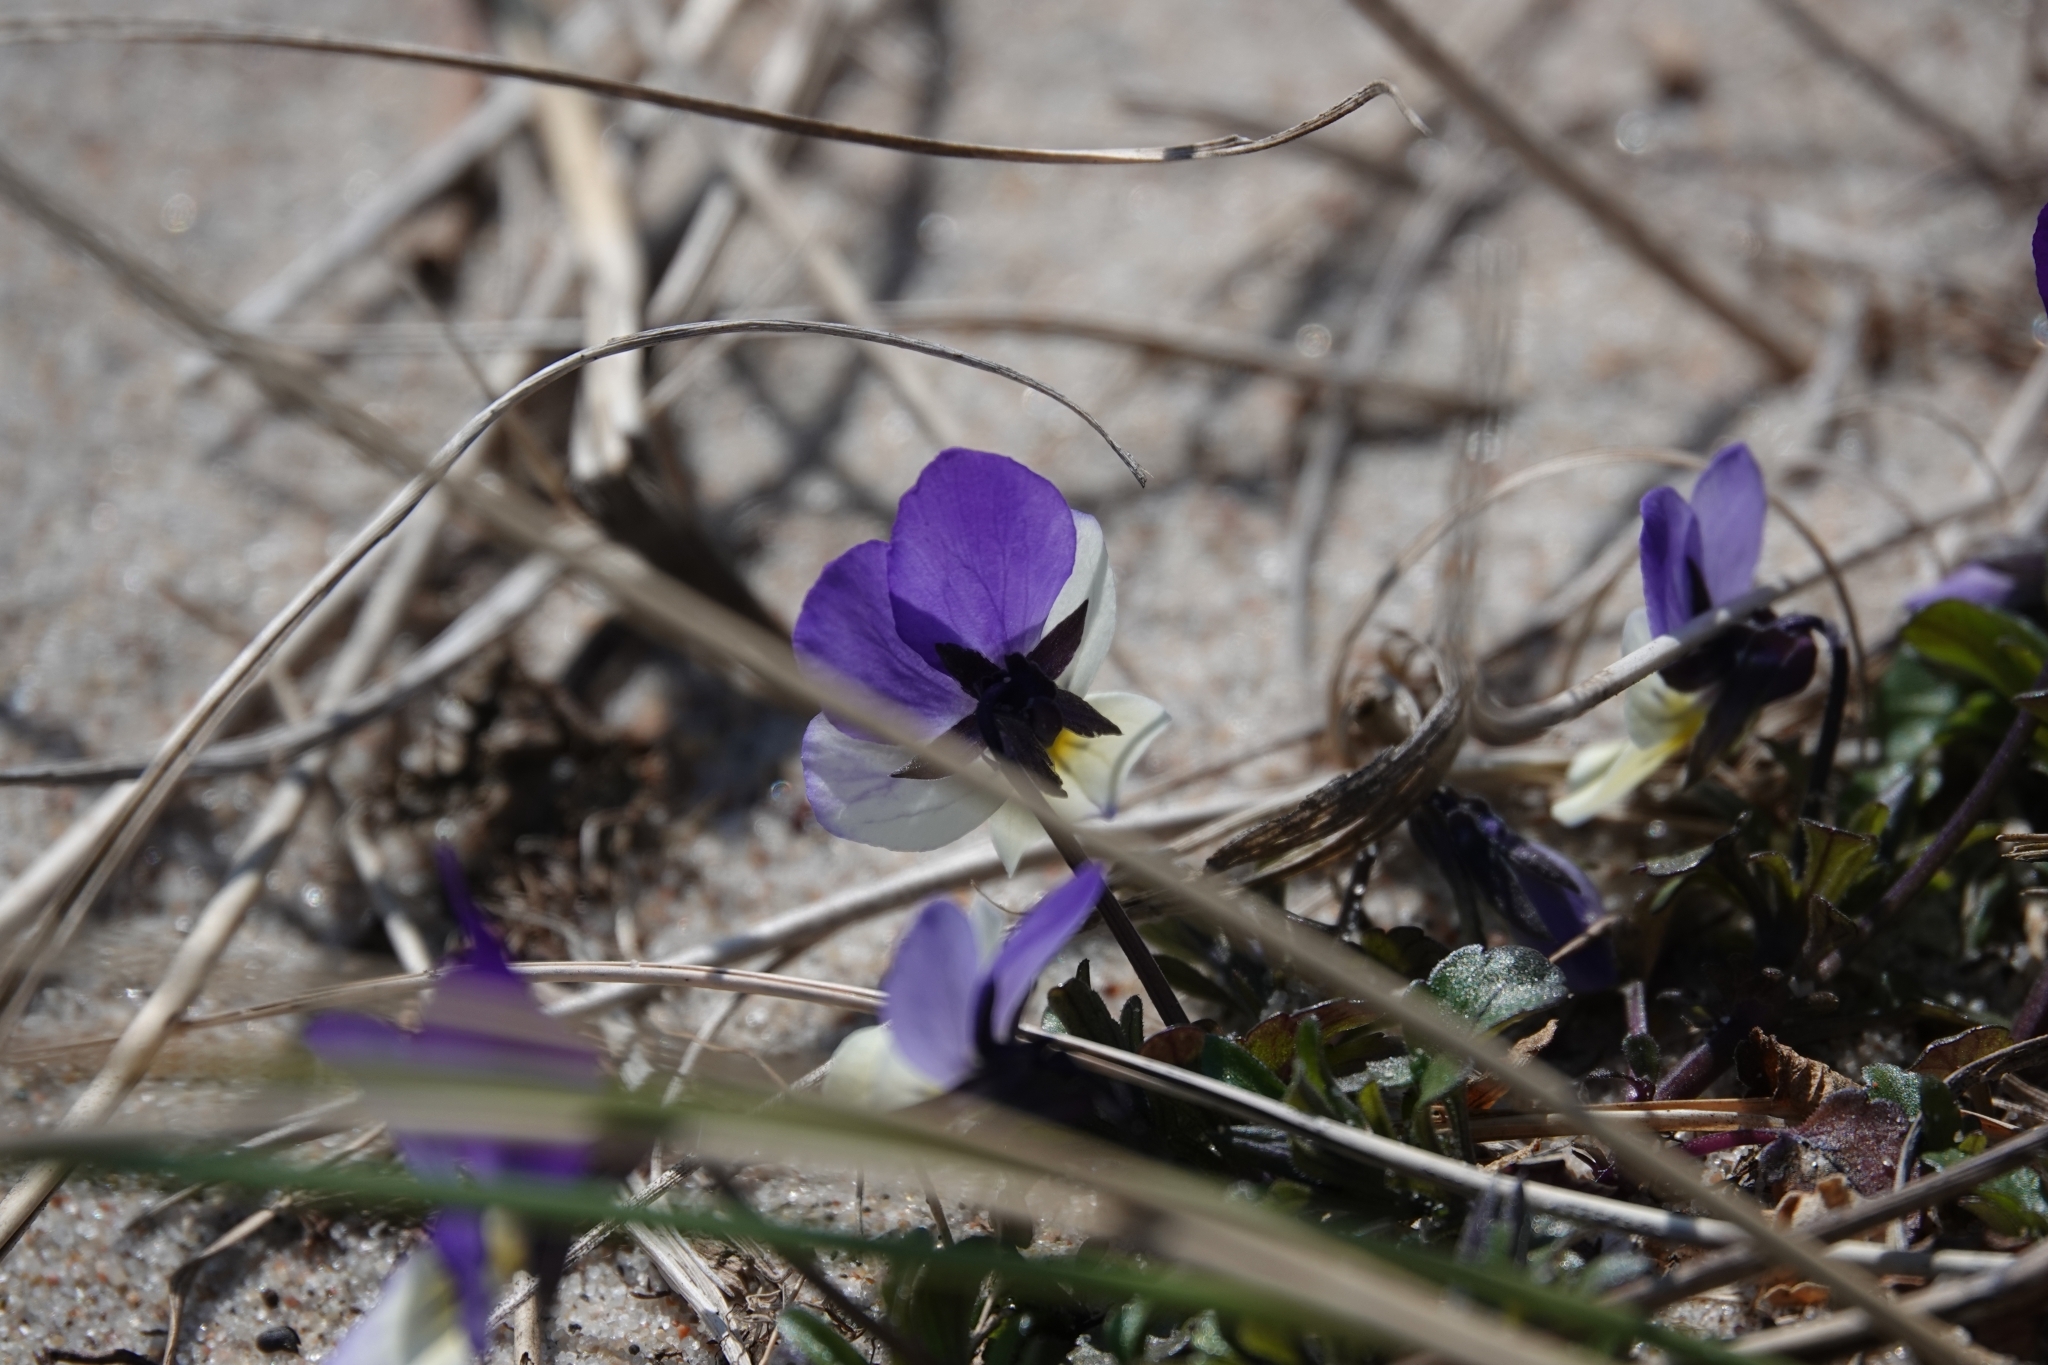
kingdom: Plantae
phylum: Tracheophyta
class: Magnoliopsida
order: Malpighiales
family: Violaceae
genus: Viola
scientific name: Viola tricolor
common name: Pansy
